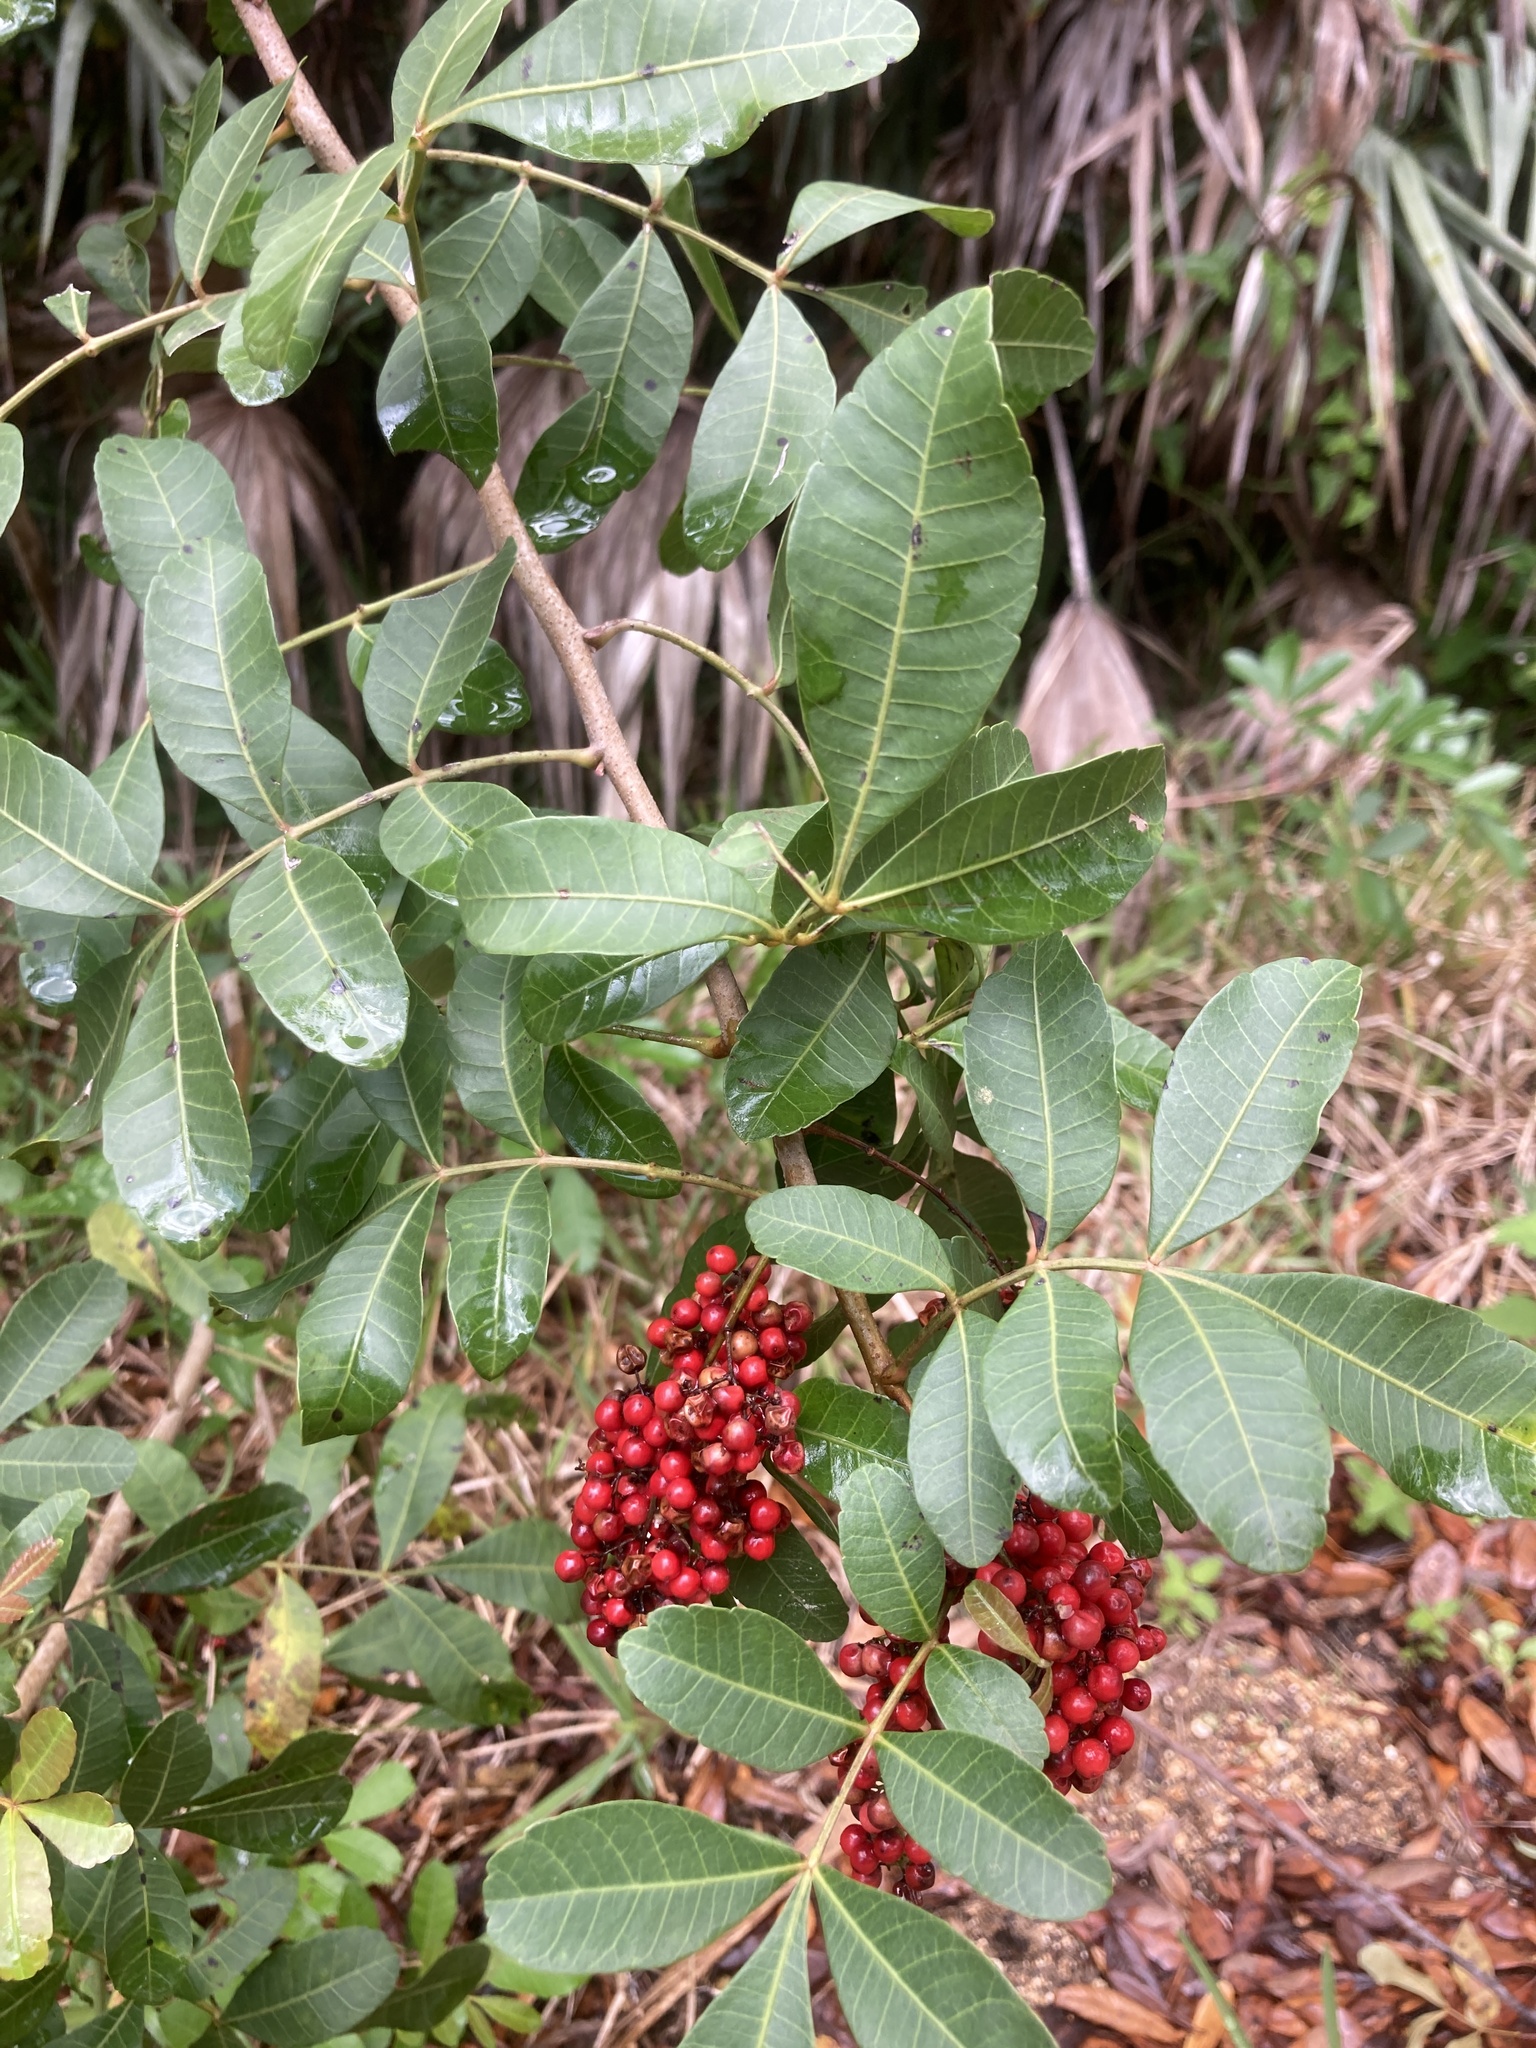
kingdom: Plantae
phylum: Tracheophyta
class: Magnoliopsida
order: Sapindales
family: Anacardiaceae
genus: Schinus
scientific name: Schinus terebinthifolia
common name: Brazilian peppertree
